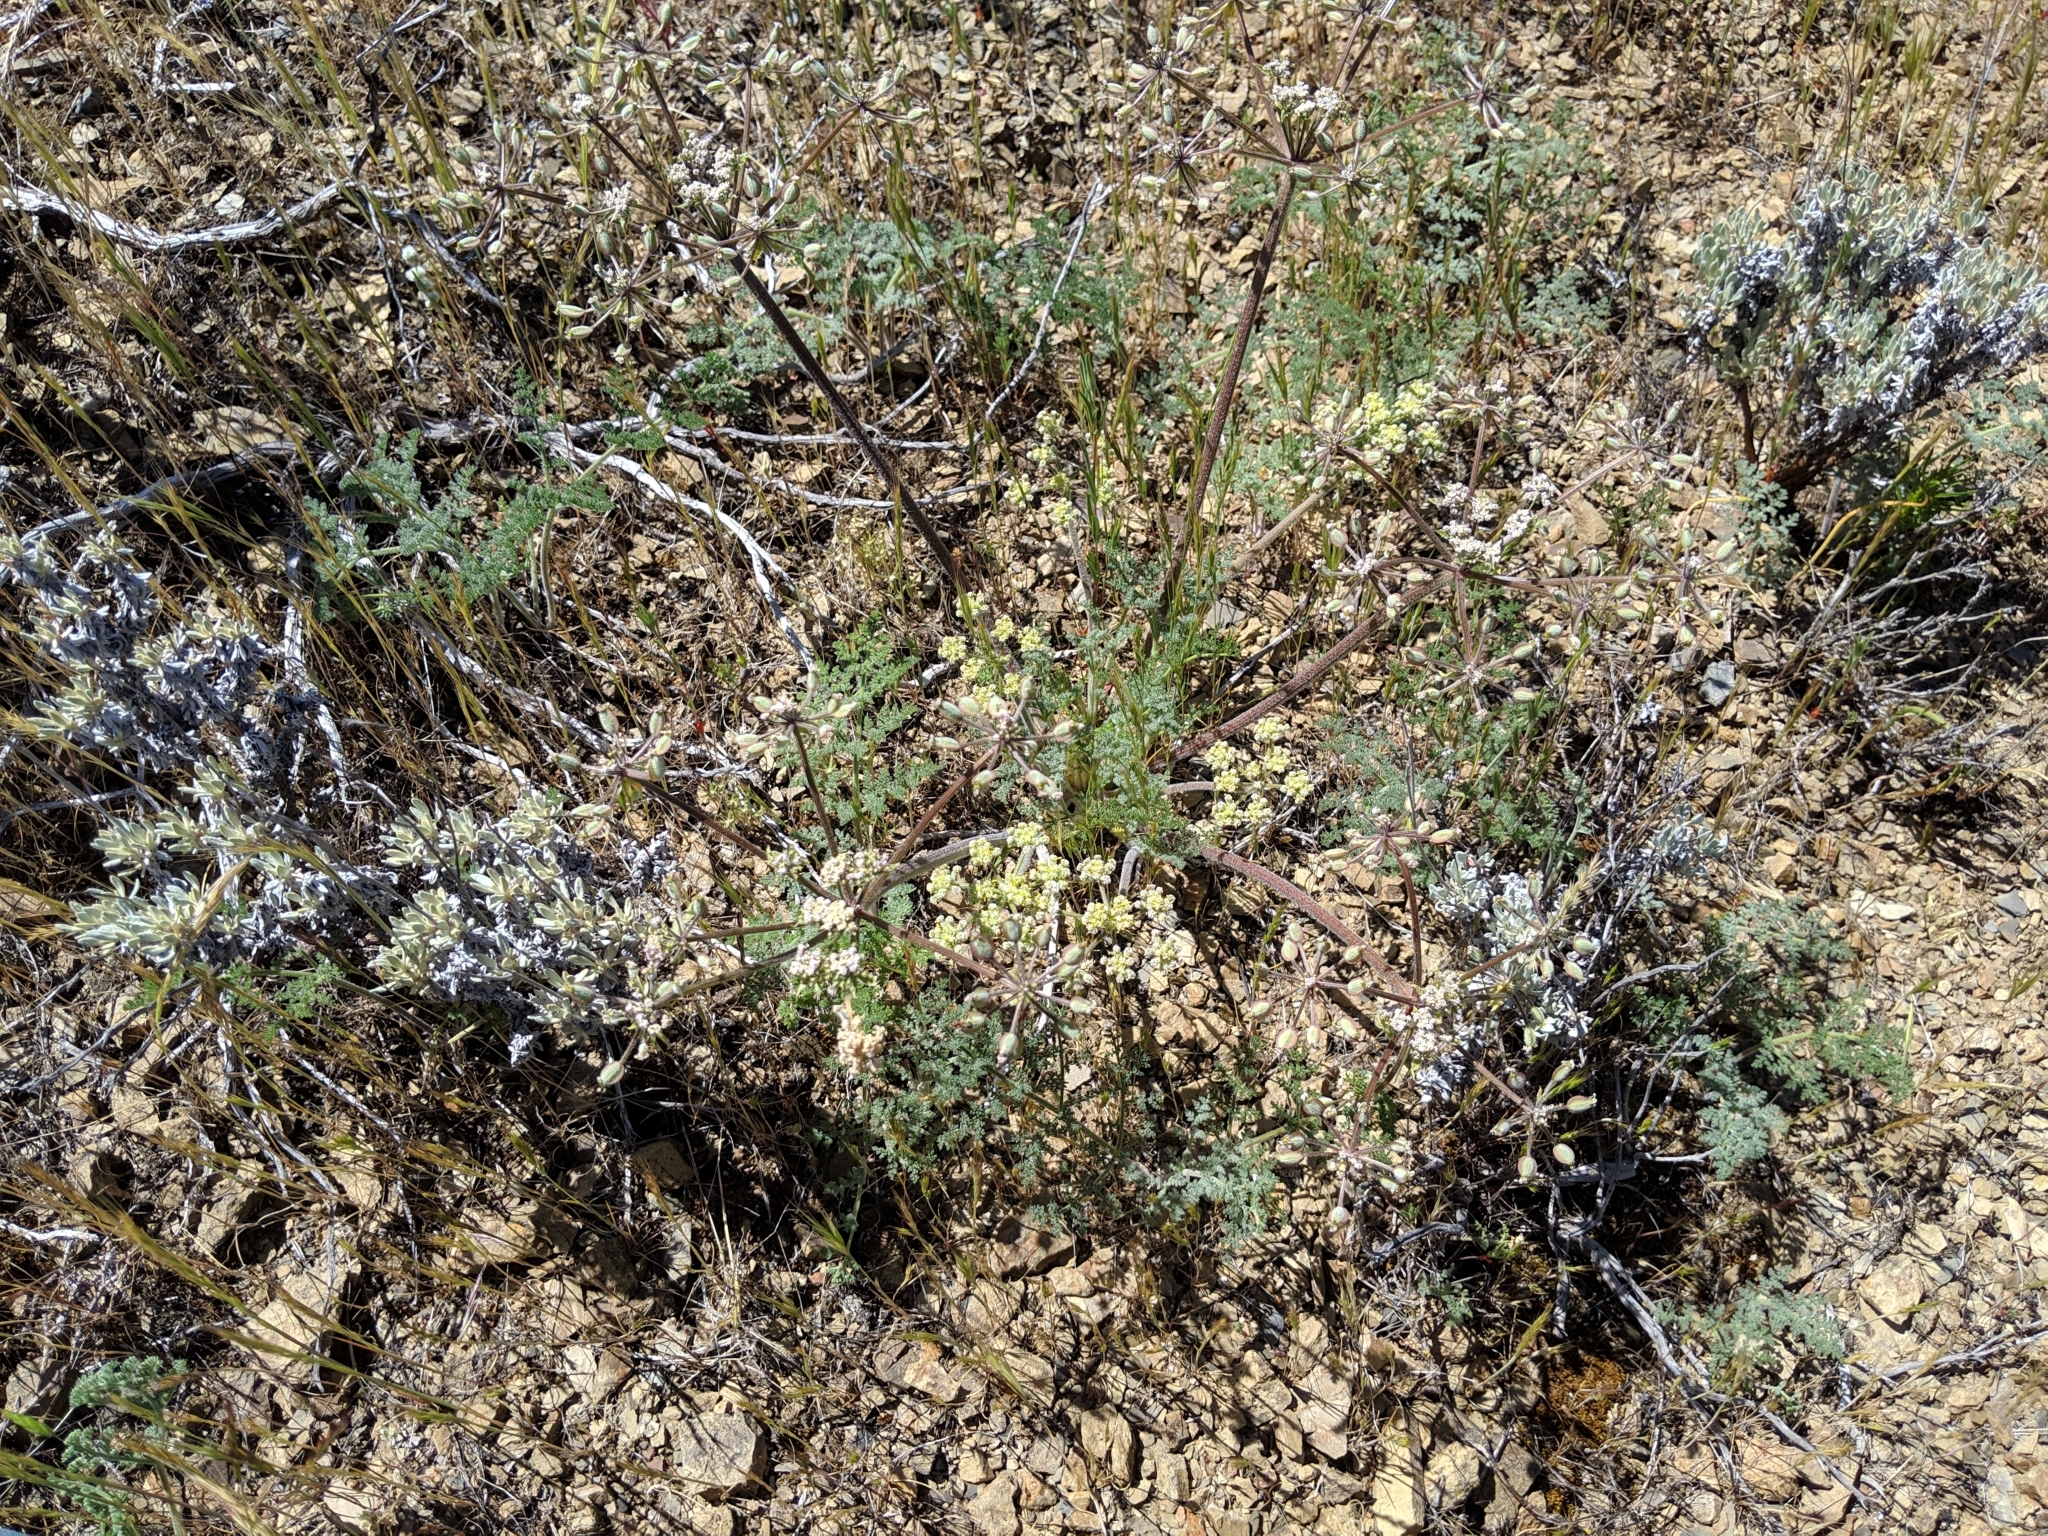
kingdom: Plantae
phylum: Tracheophyta
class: Magnoliopsida
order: Apiales
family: Apiaceae
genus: Lomatium
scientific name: Lomatium dasycarpum
